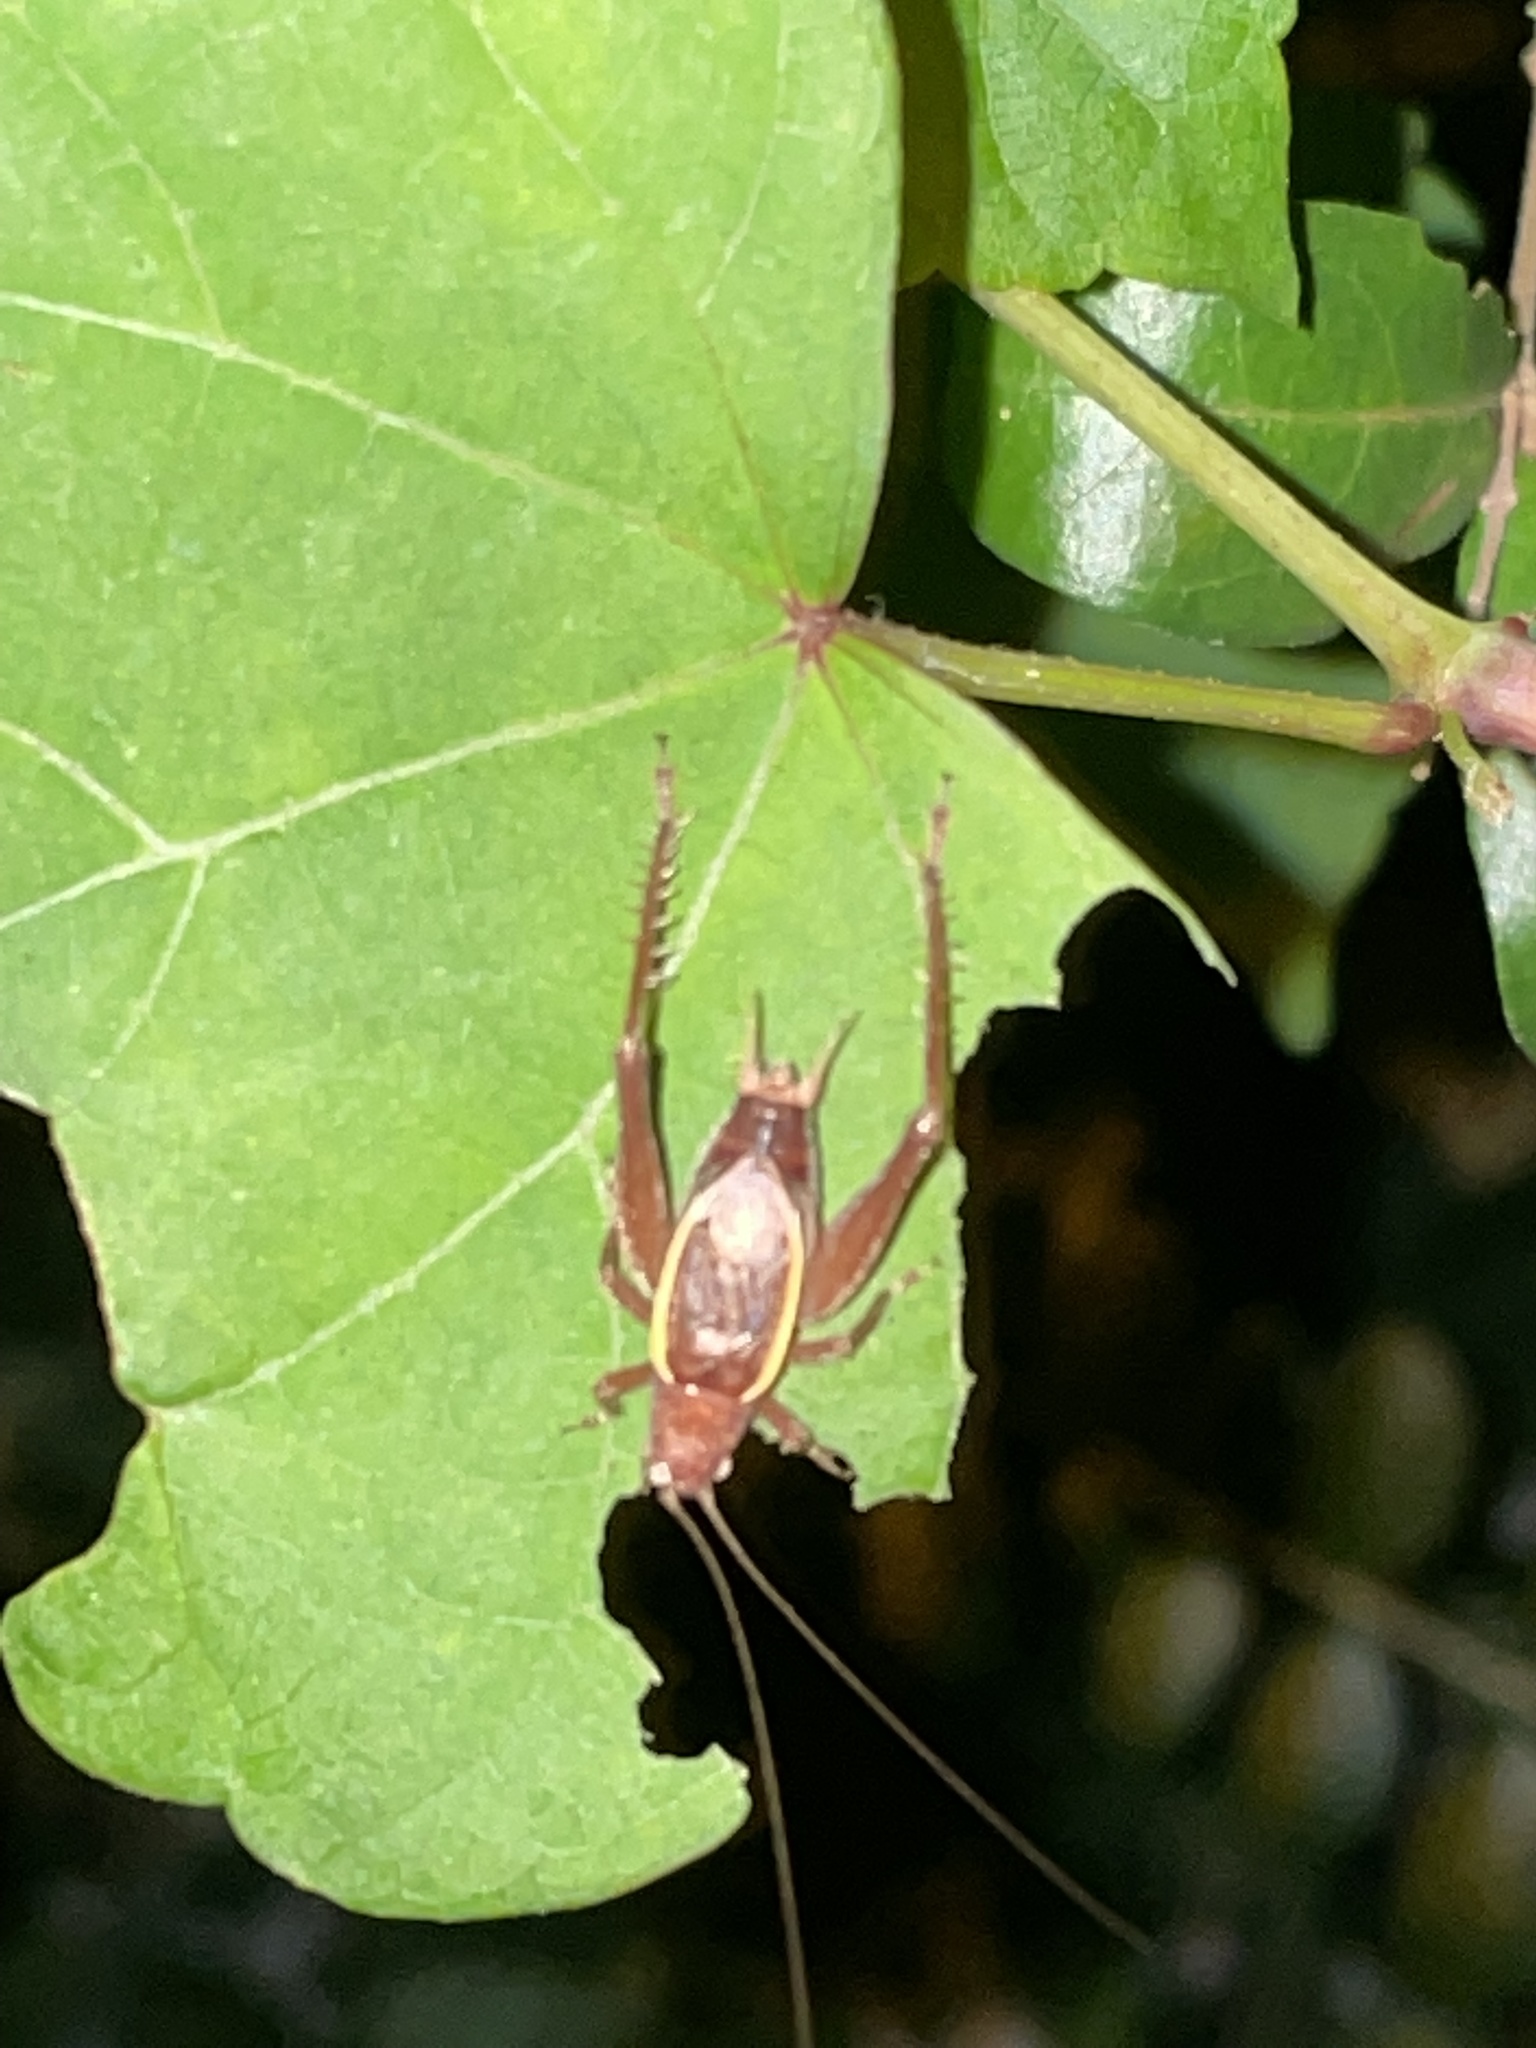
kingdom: Animalia
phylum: Arthropoda
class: Insecta
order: Orthoptera
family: Gryllidae
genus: Hapithus
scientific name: Hapithus agitator
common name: Restless bush cricket
